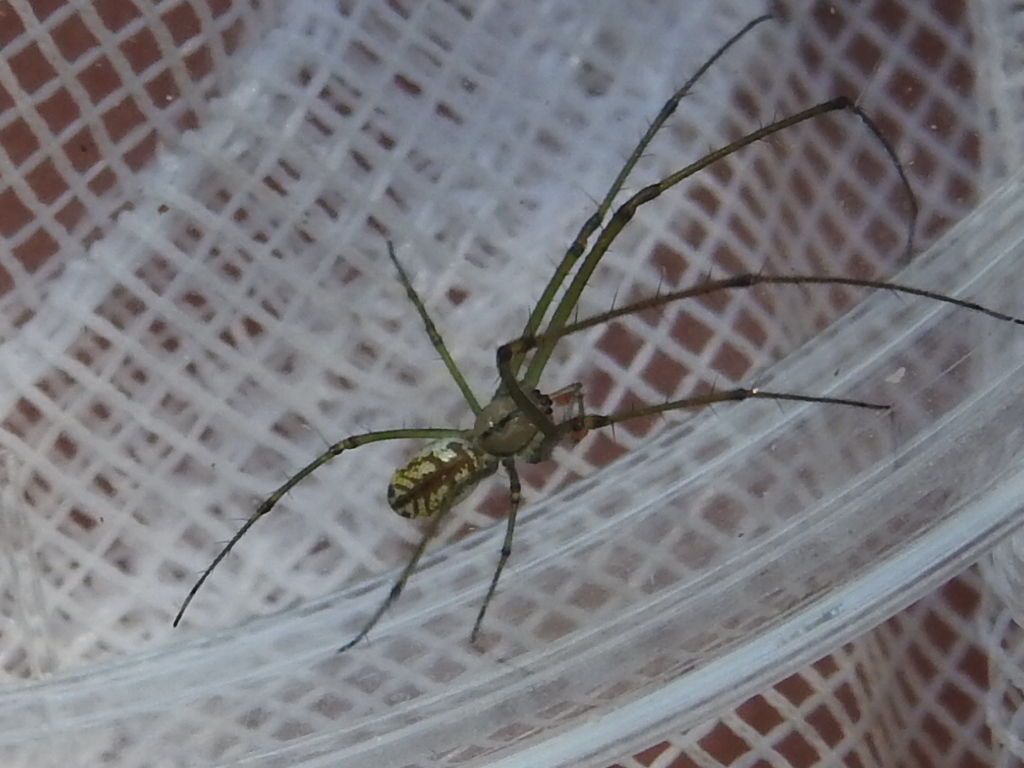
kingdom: Animalia
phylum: Arthropoda
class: Arachnida
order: Araneae
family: Tetragnathidae
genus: Leucauge
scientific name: Leucauge venusta
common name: Longjawed orb weavers
